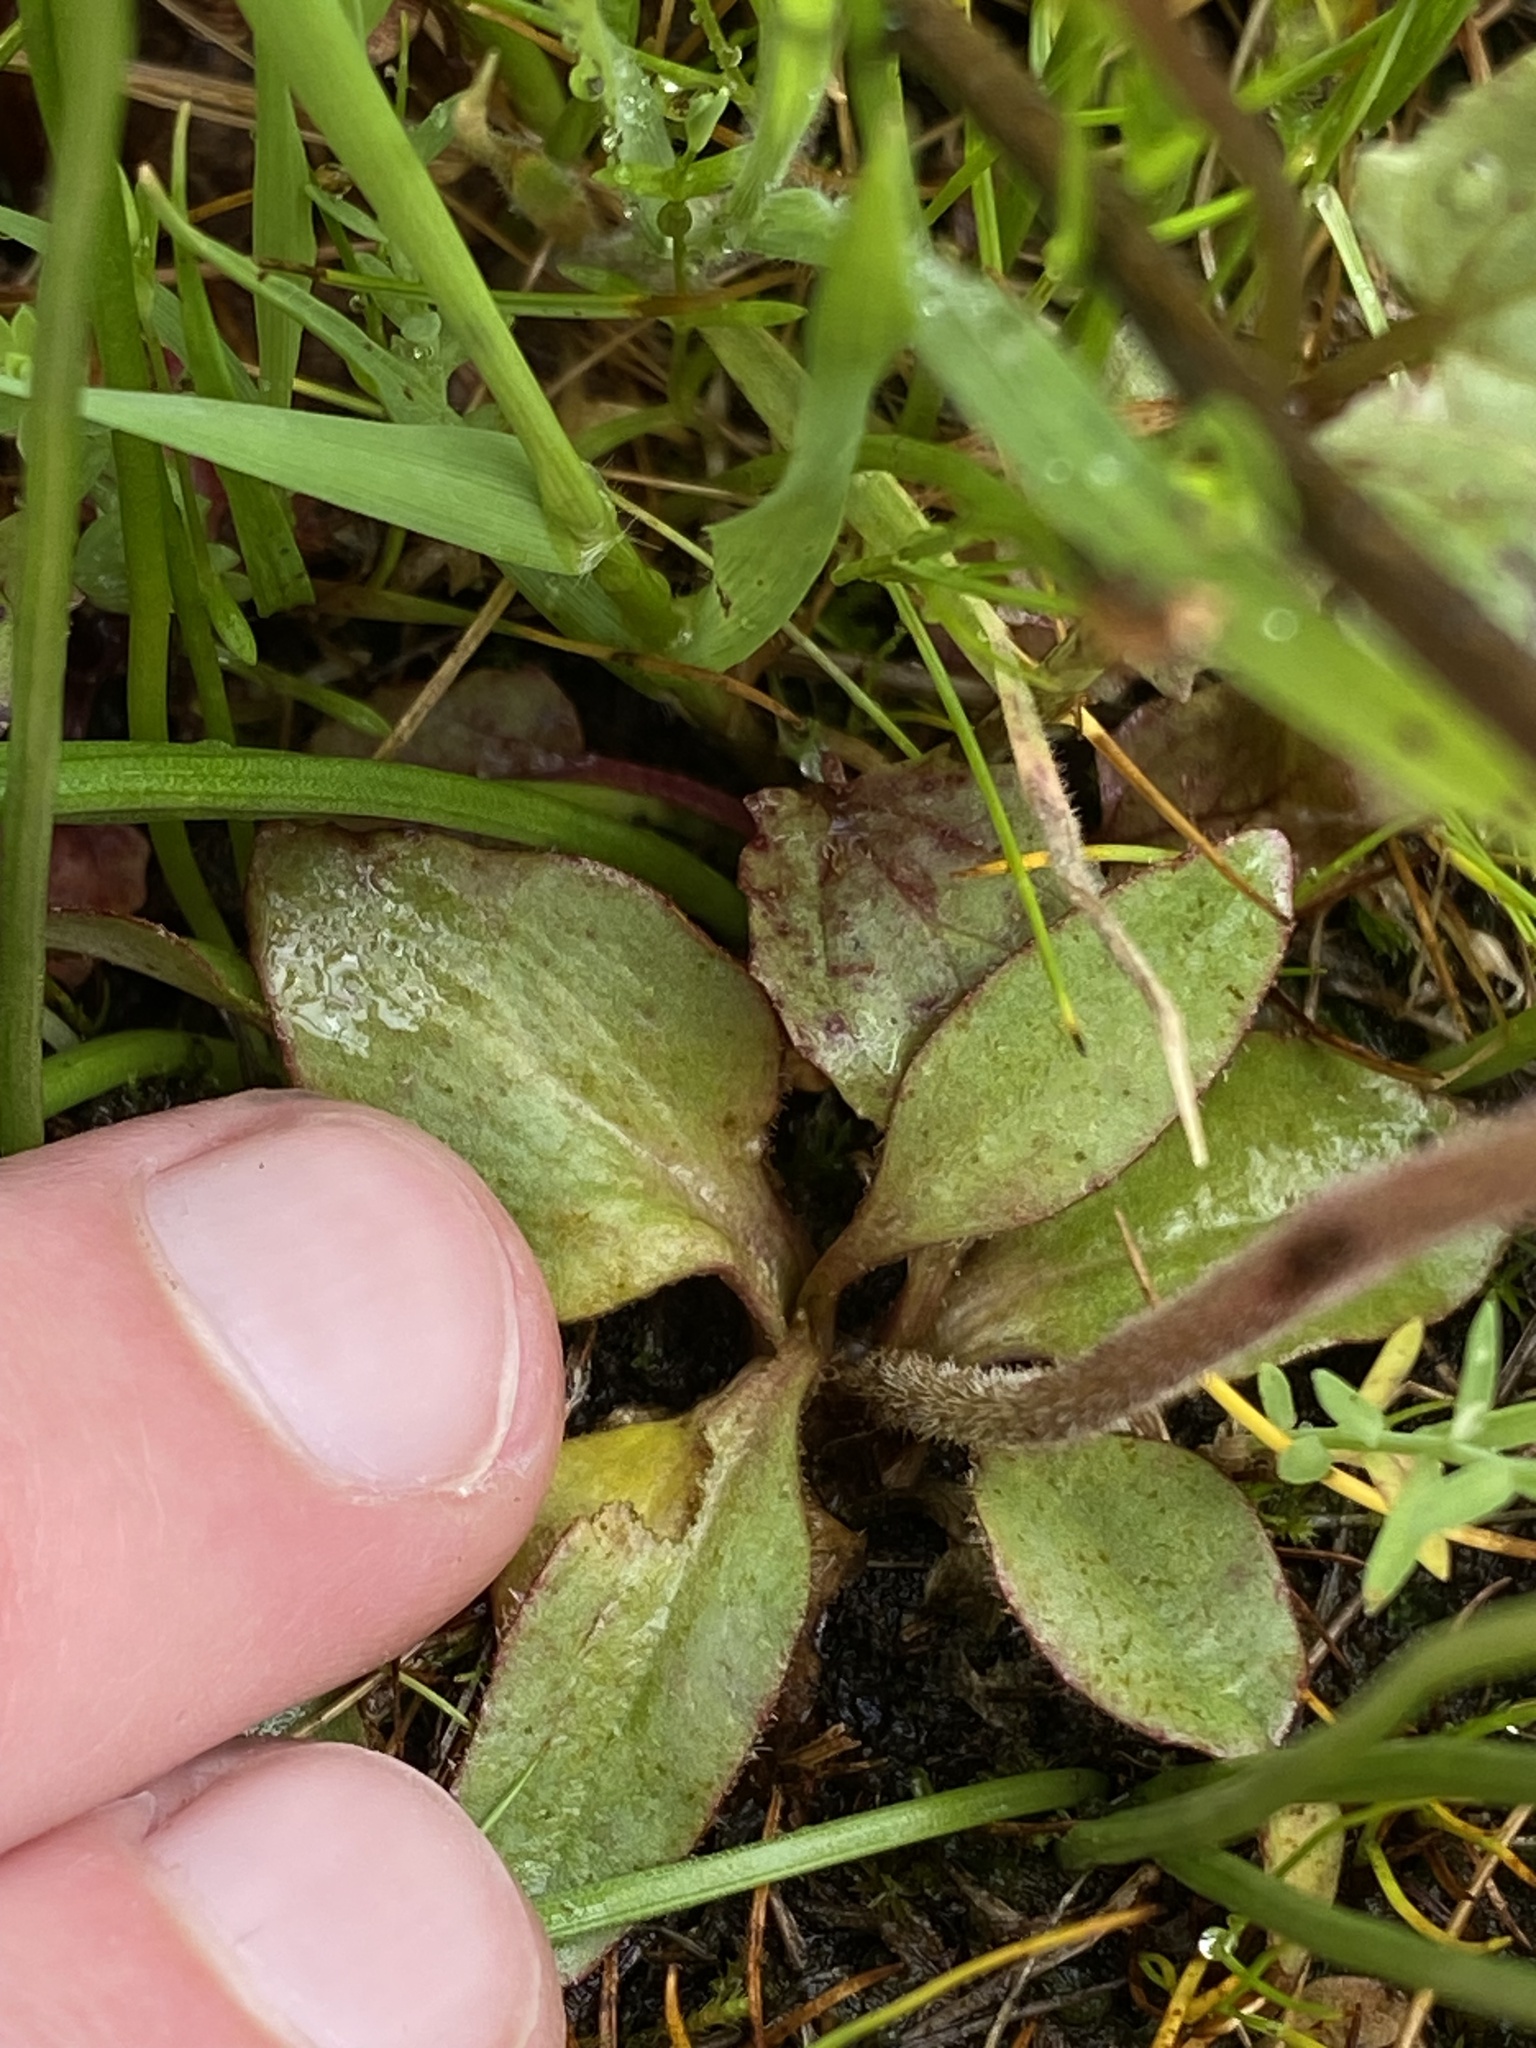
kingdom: Plantae
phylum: Tracheophyta
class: Magnoliopsida
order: Saxifragales
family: Saxifragaceae
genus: Micranthes
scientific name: Micranthes integrifolia
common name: Wholeleaf saxifrage
